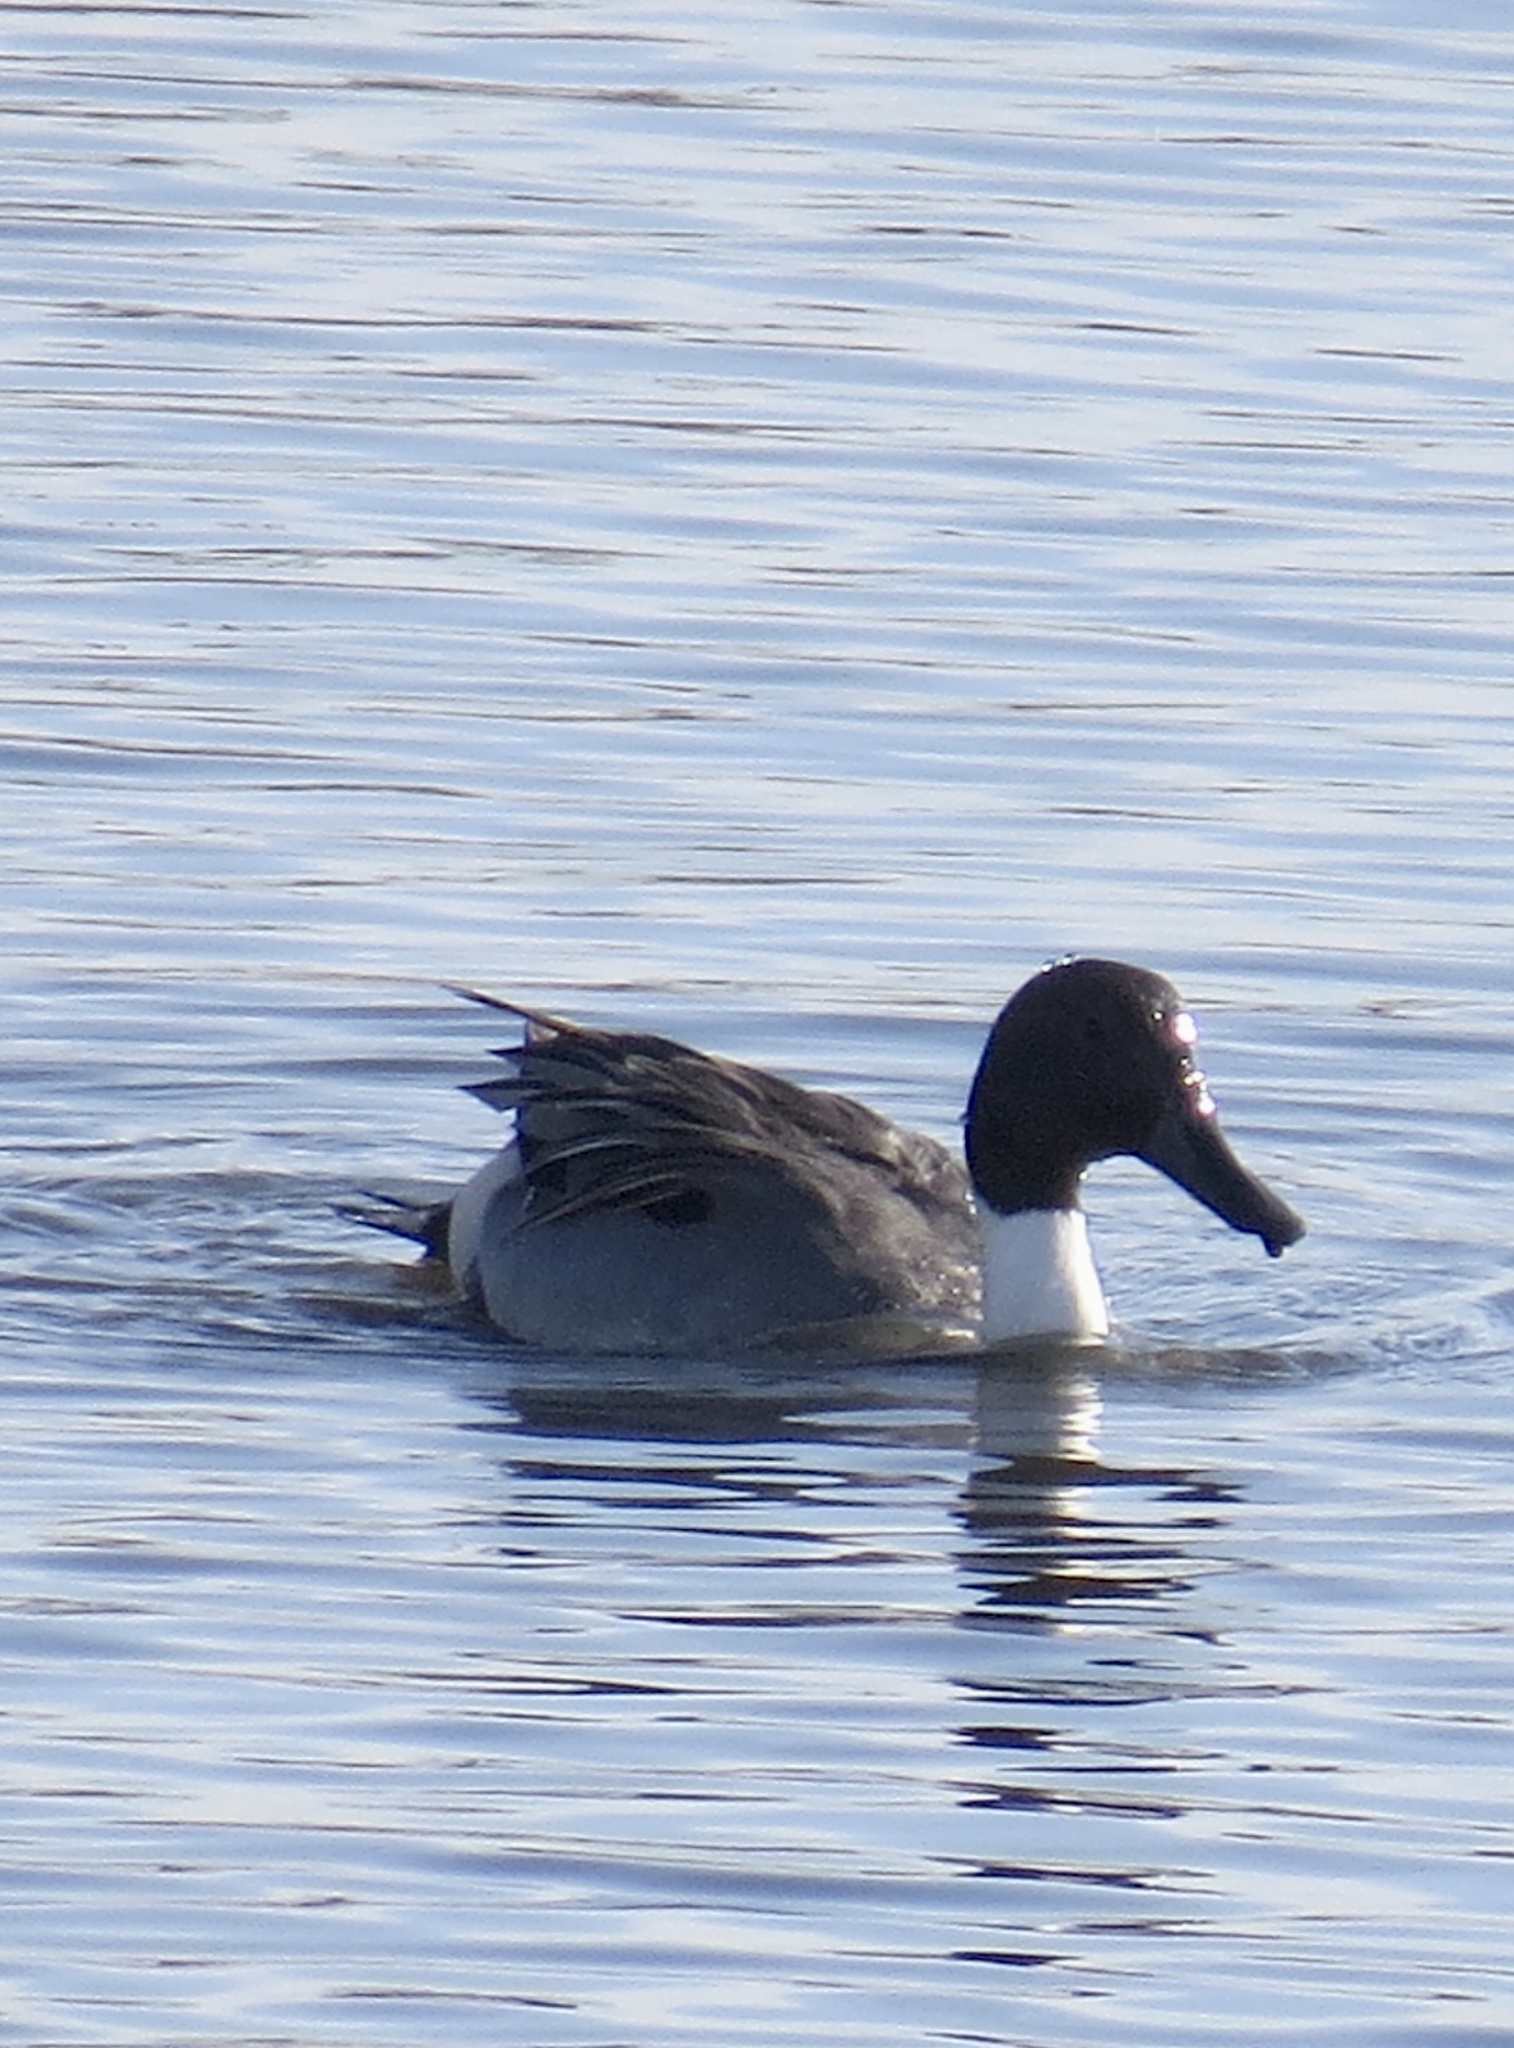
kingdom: Animalia
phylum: Chordata
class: Aves
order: Anseriformes
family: Anatidae
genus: Anas
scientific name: Anas acuta
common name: Northern pintail
